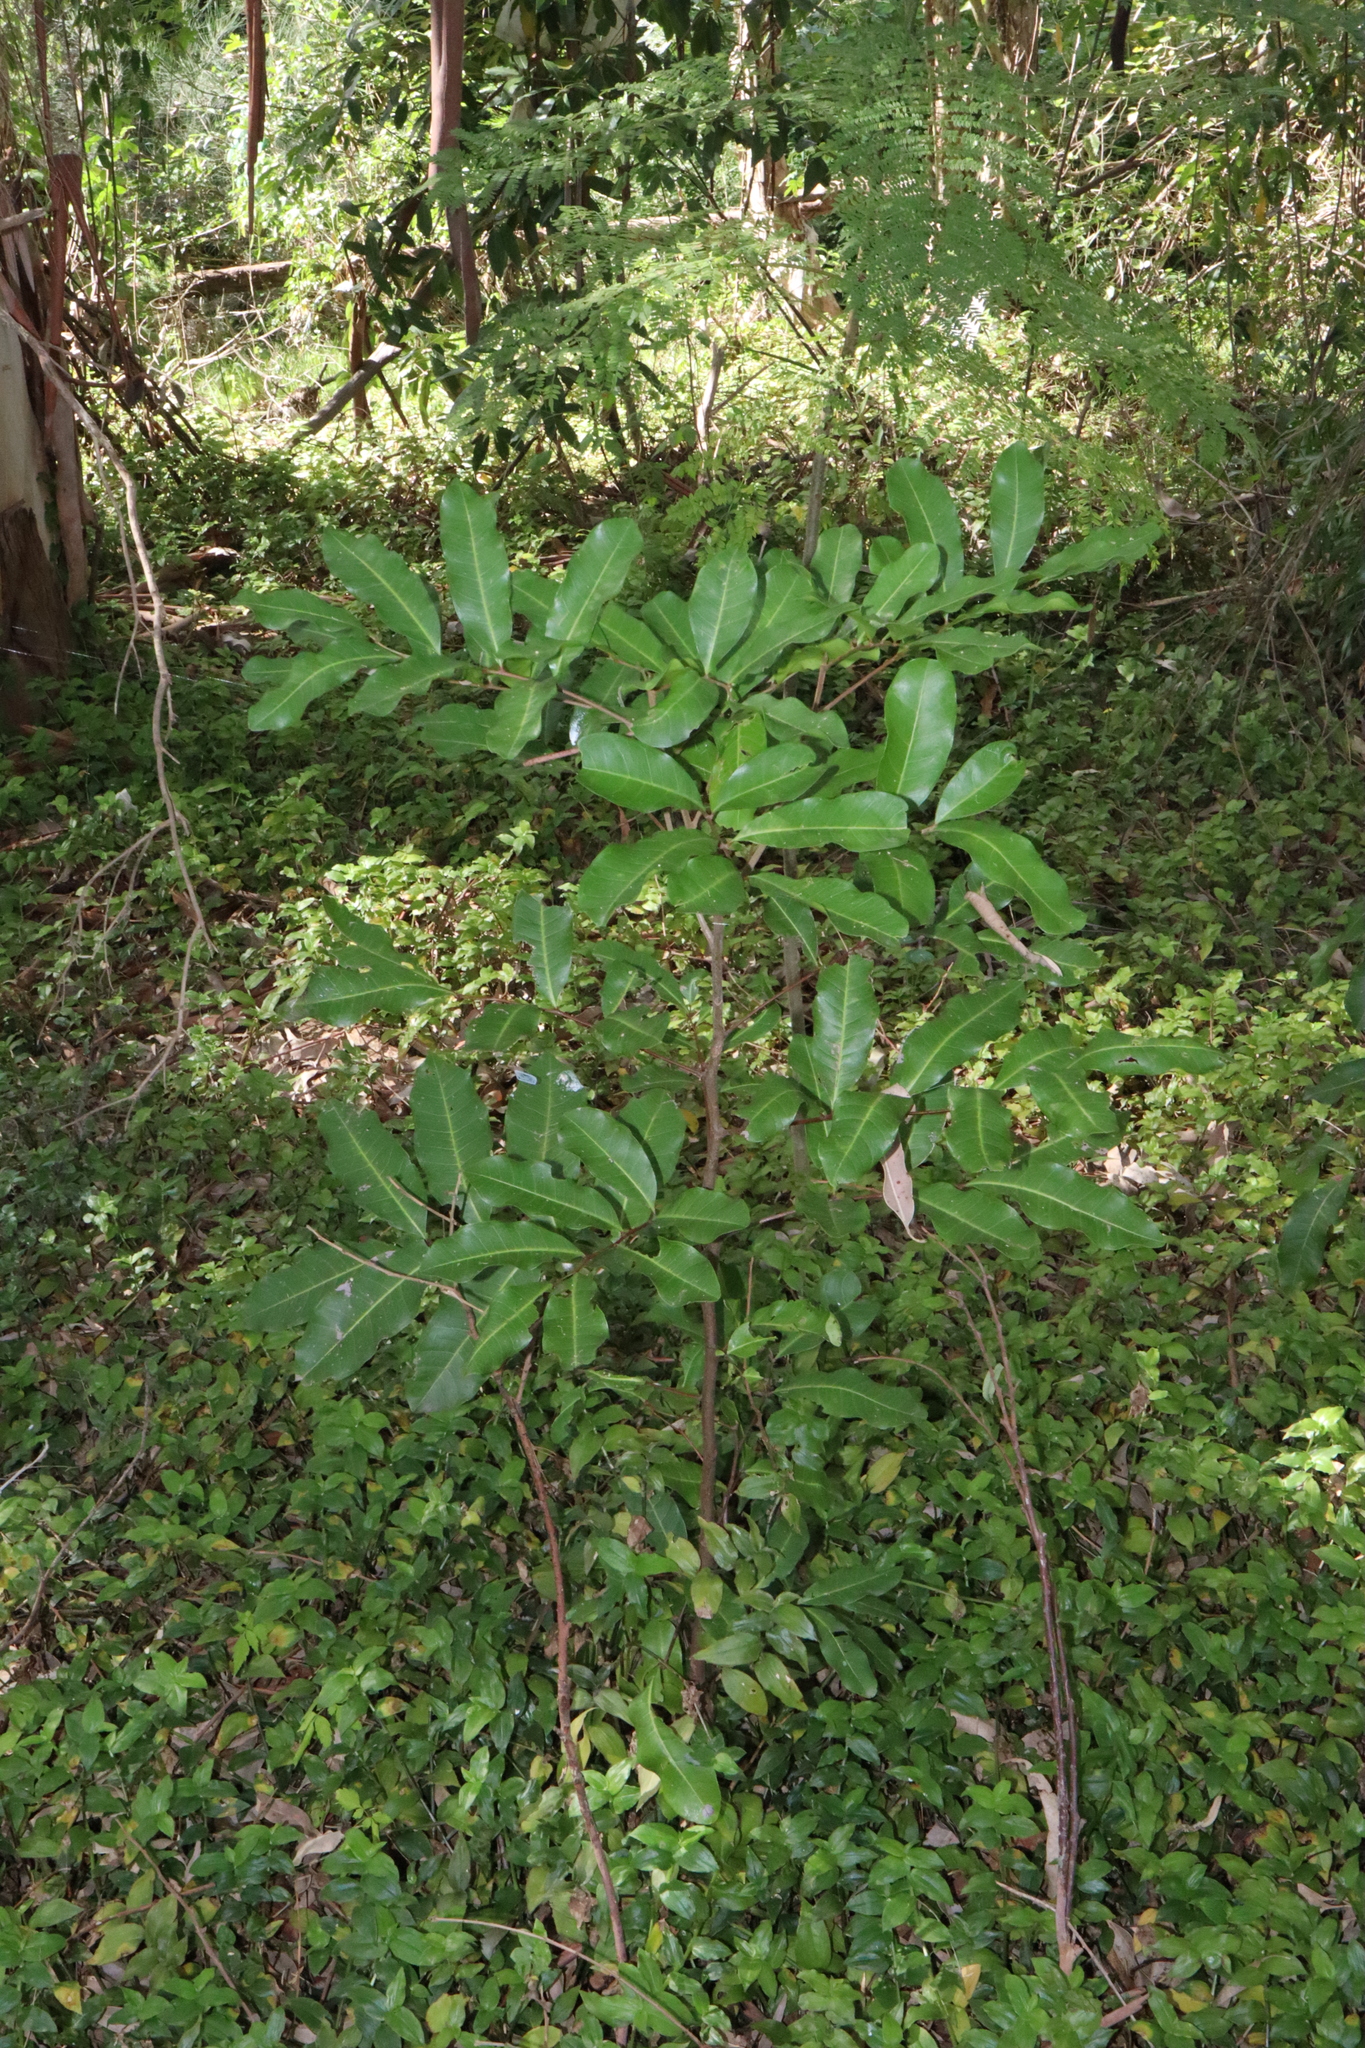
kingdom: Plantae
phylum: Tracheophyta
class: Magnoliopsida
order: Sapindales
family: Sapindaceae
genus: Cupaniopsis
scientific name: Cupaniopsis anacardioides
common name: Carrotwood
